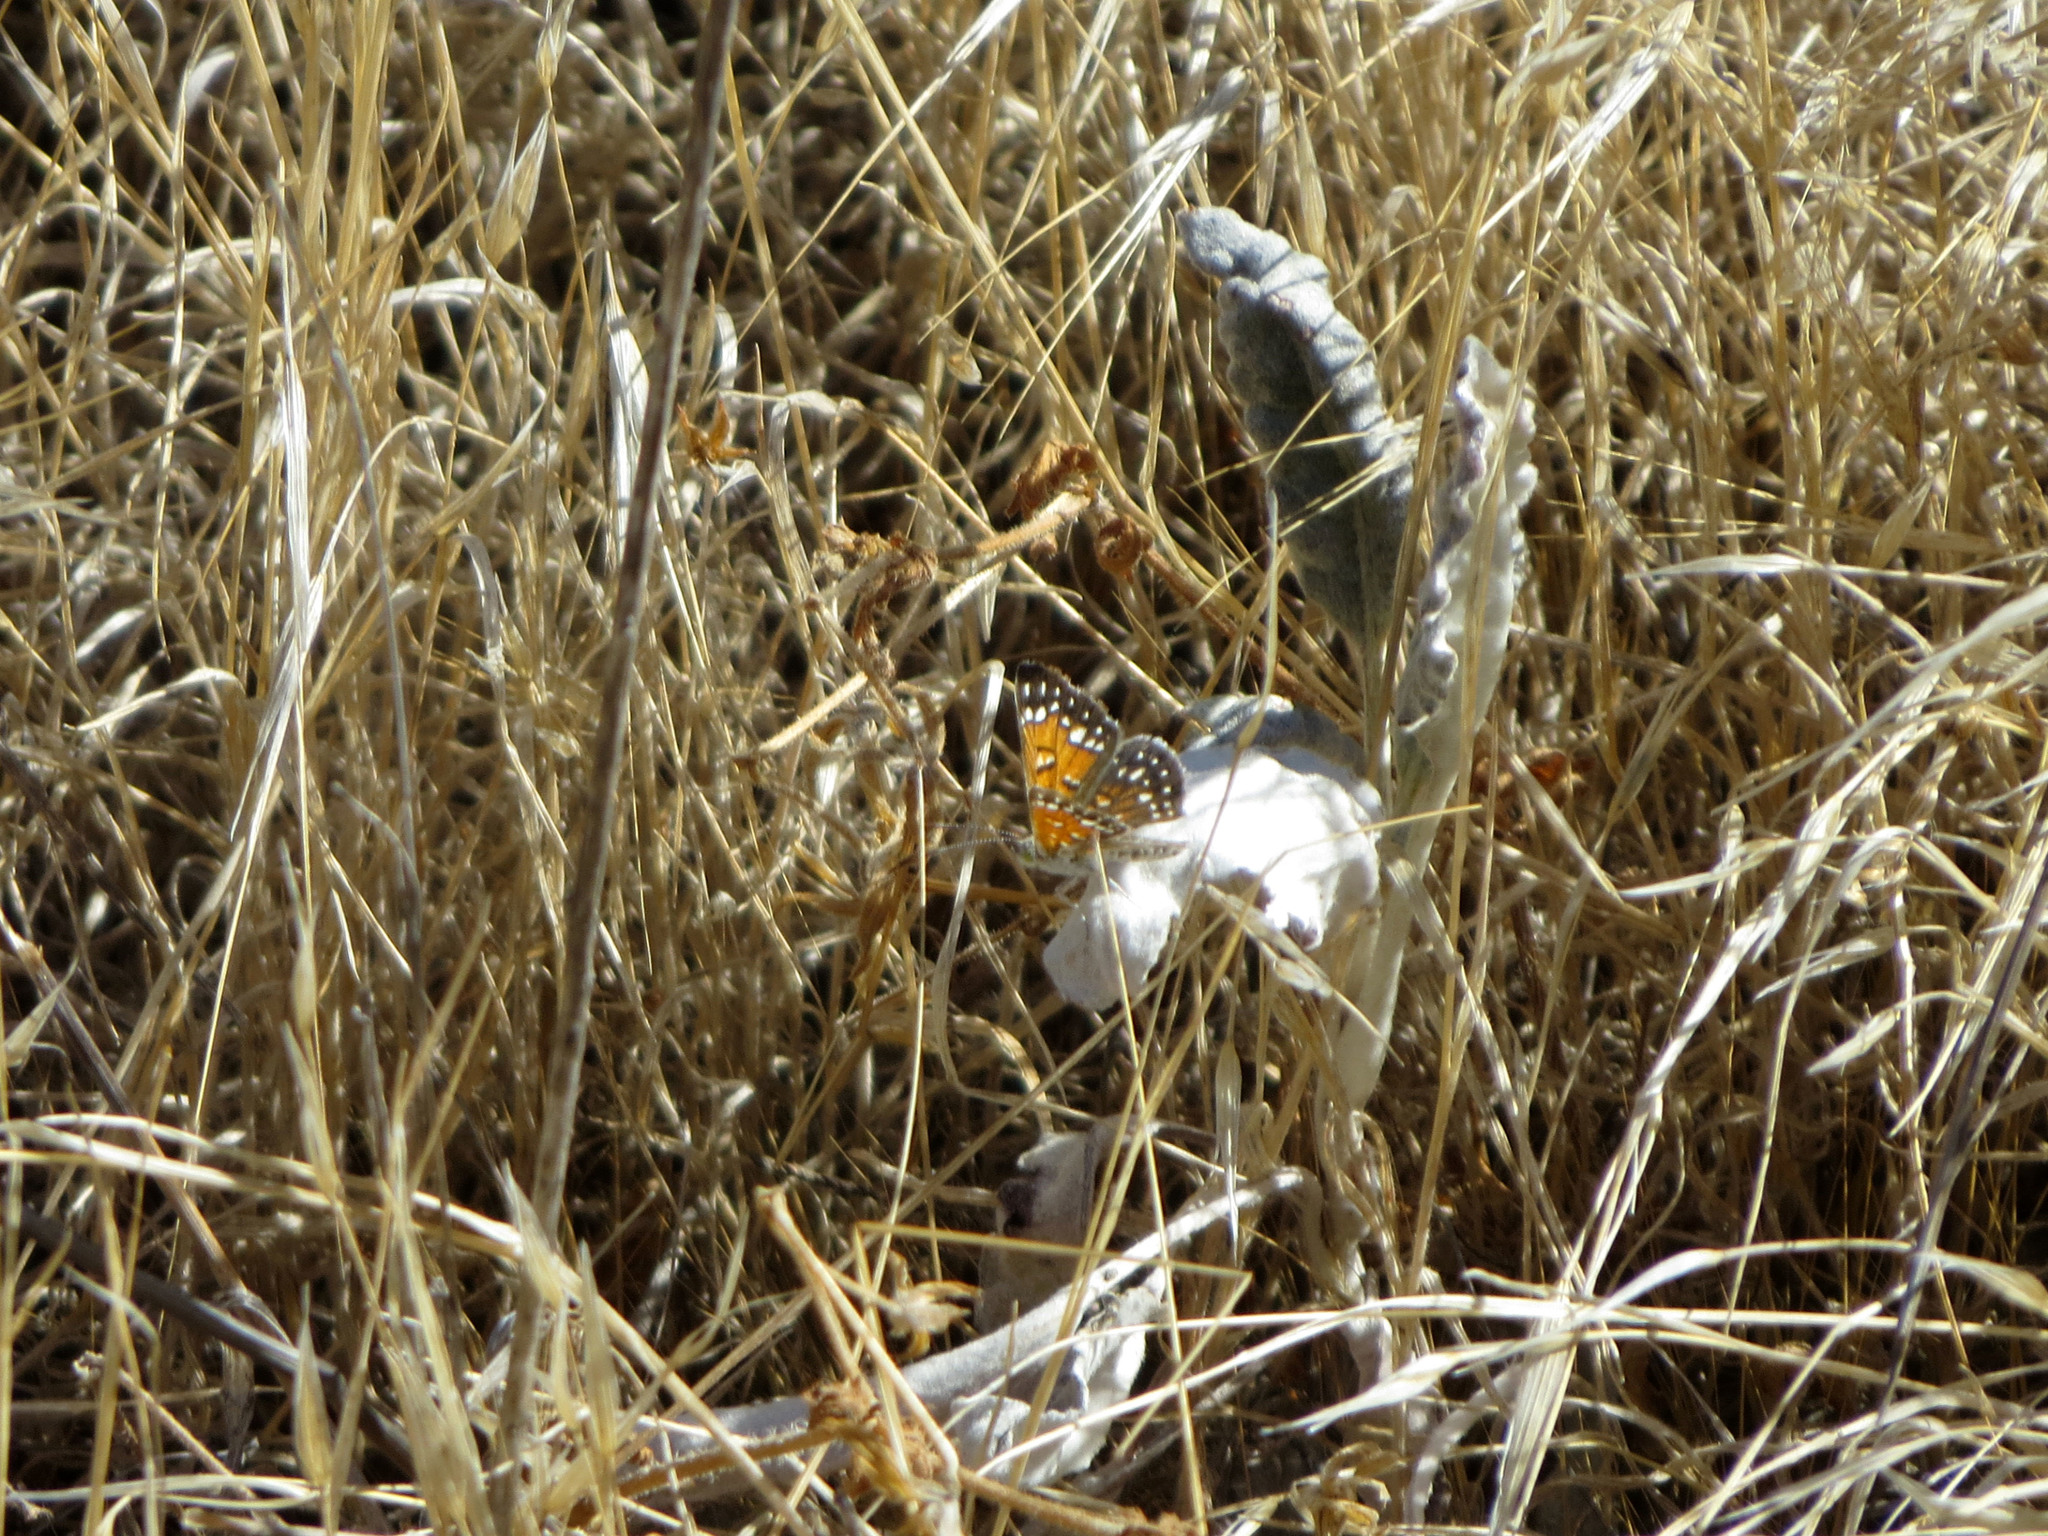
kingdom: Animalia
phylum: Arthropoda
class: Insecta
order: Lepidoptera
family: Riodinidae
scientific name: Riodinidae
